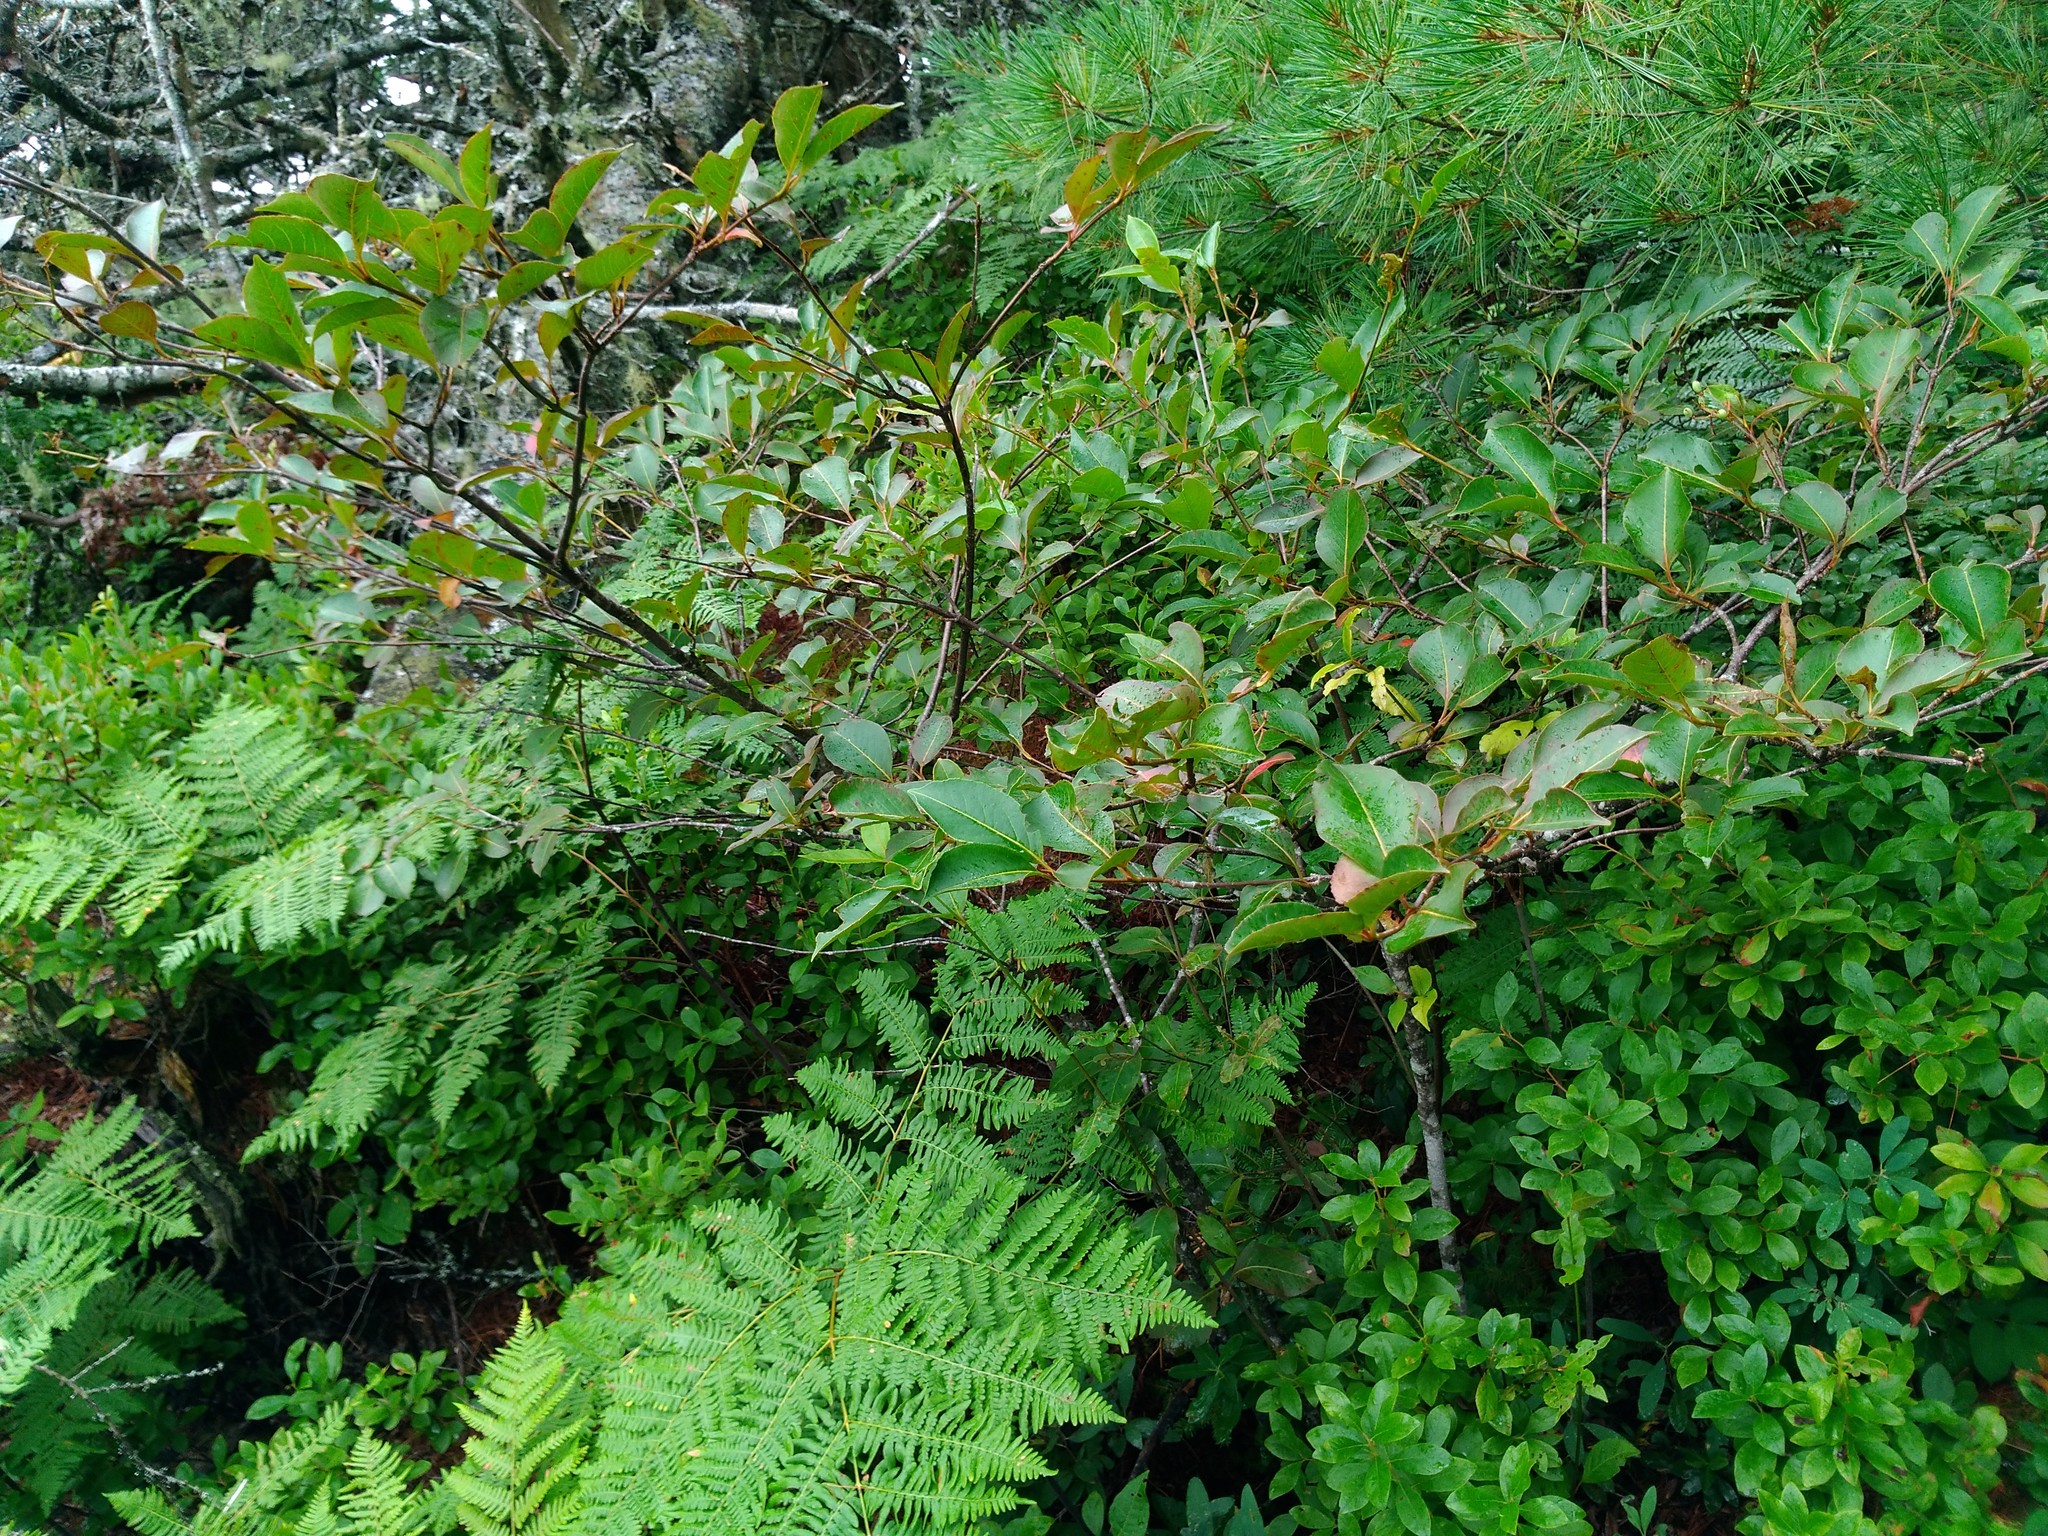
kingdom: Plantae
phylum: Tracheophyta
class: Magnoliopsida
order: Dipsacales
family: Viburnaceae
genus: Viburnum
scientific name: Viburnum cassinoides
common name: Swamp haw
